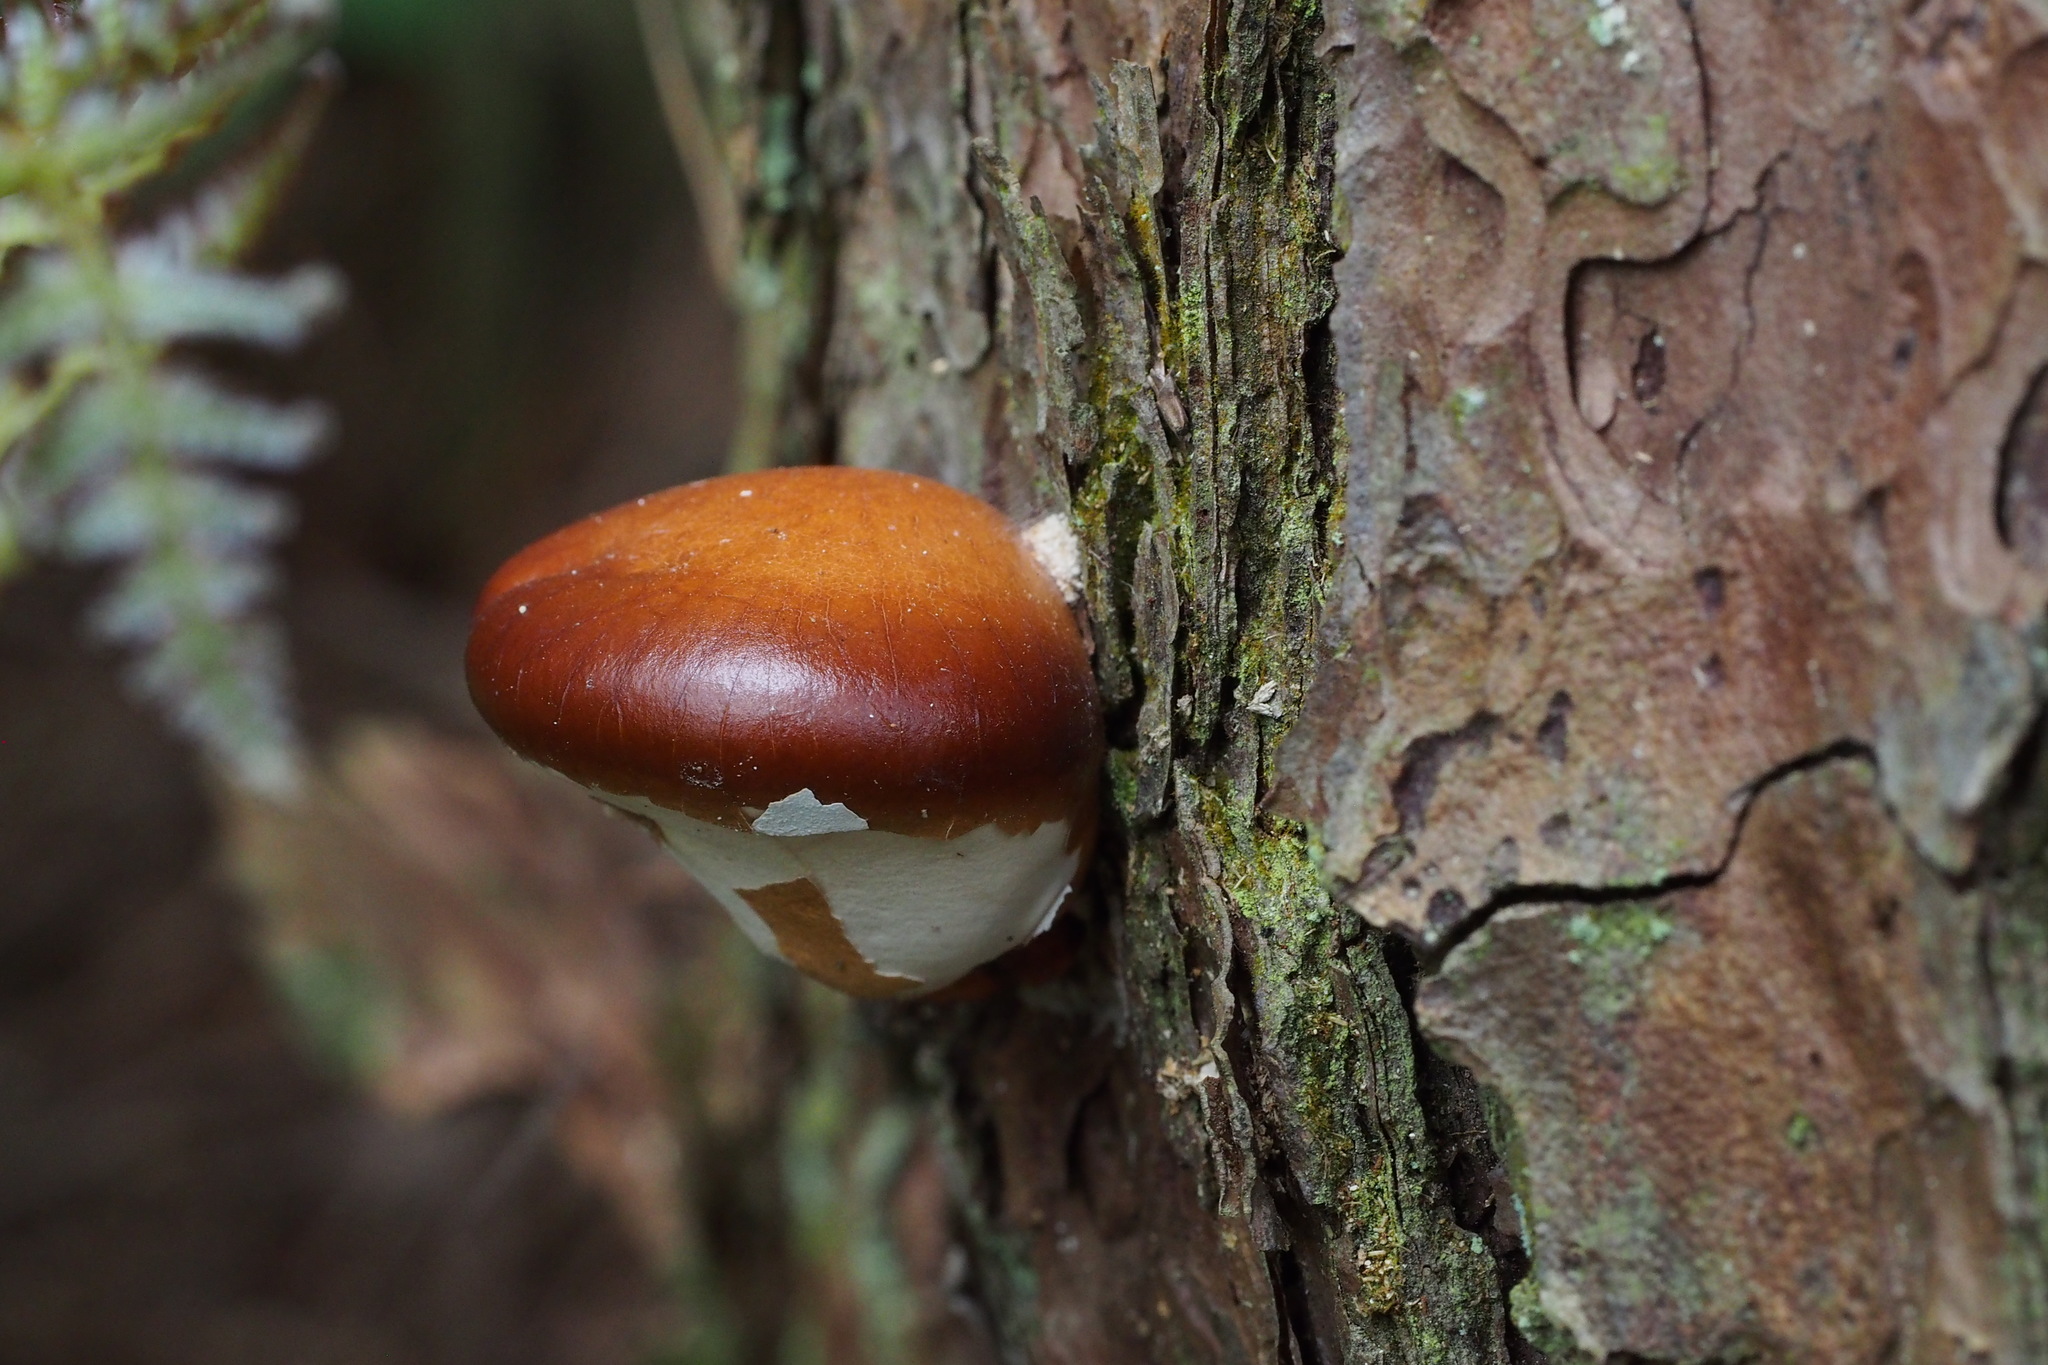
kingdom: Fungi
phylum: Basidiomycota
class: Agaricomycetes
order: Polyporales
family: Polyporaceae
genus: Cryptoporus
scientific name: Cryptoporus volvatus
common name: Veiled polypore
